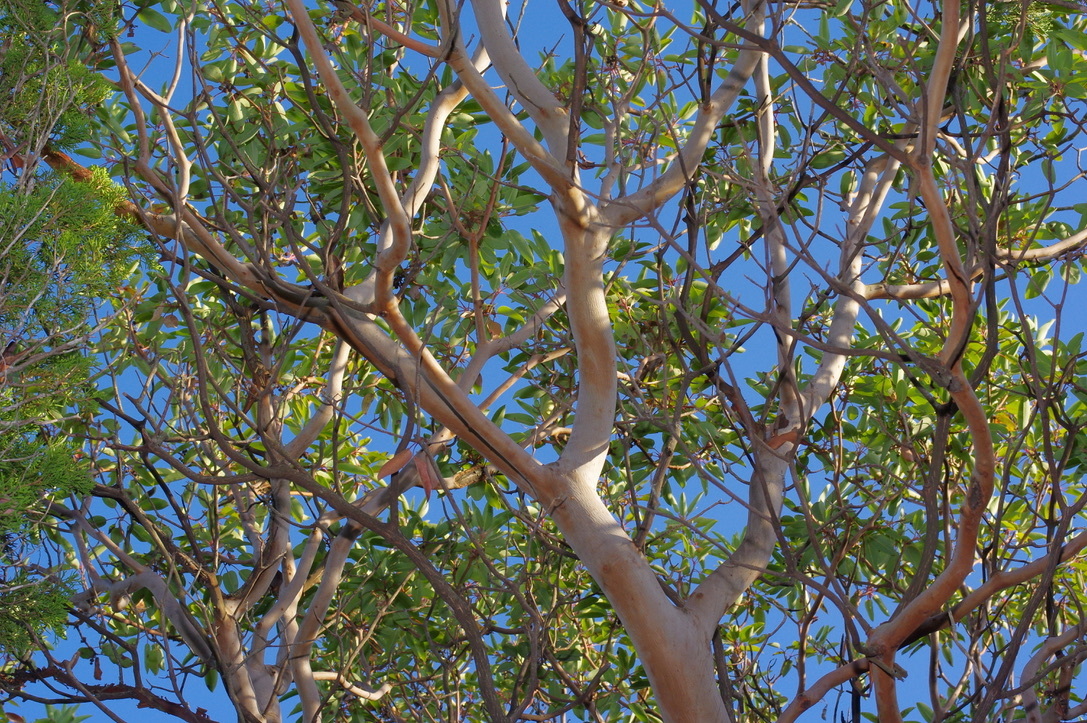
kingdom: Plantae
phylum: Tracheophyta
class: Magnoliopsida
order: Ericales
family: Ericaceae
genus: Arbutus
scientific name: Arbutus xalapensis
